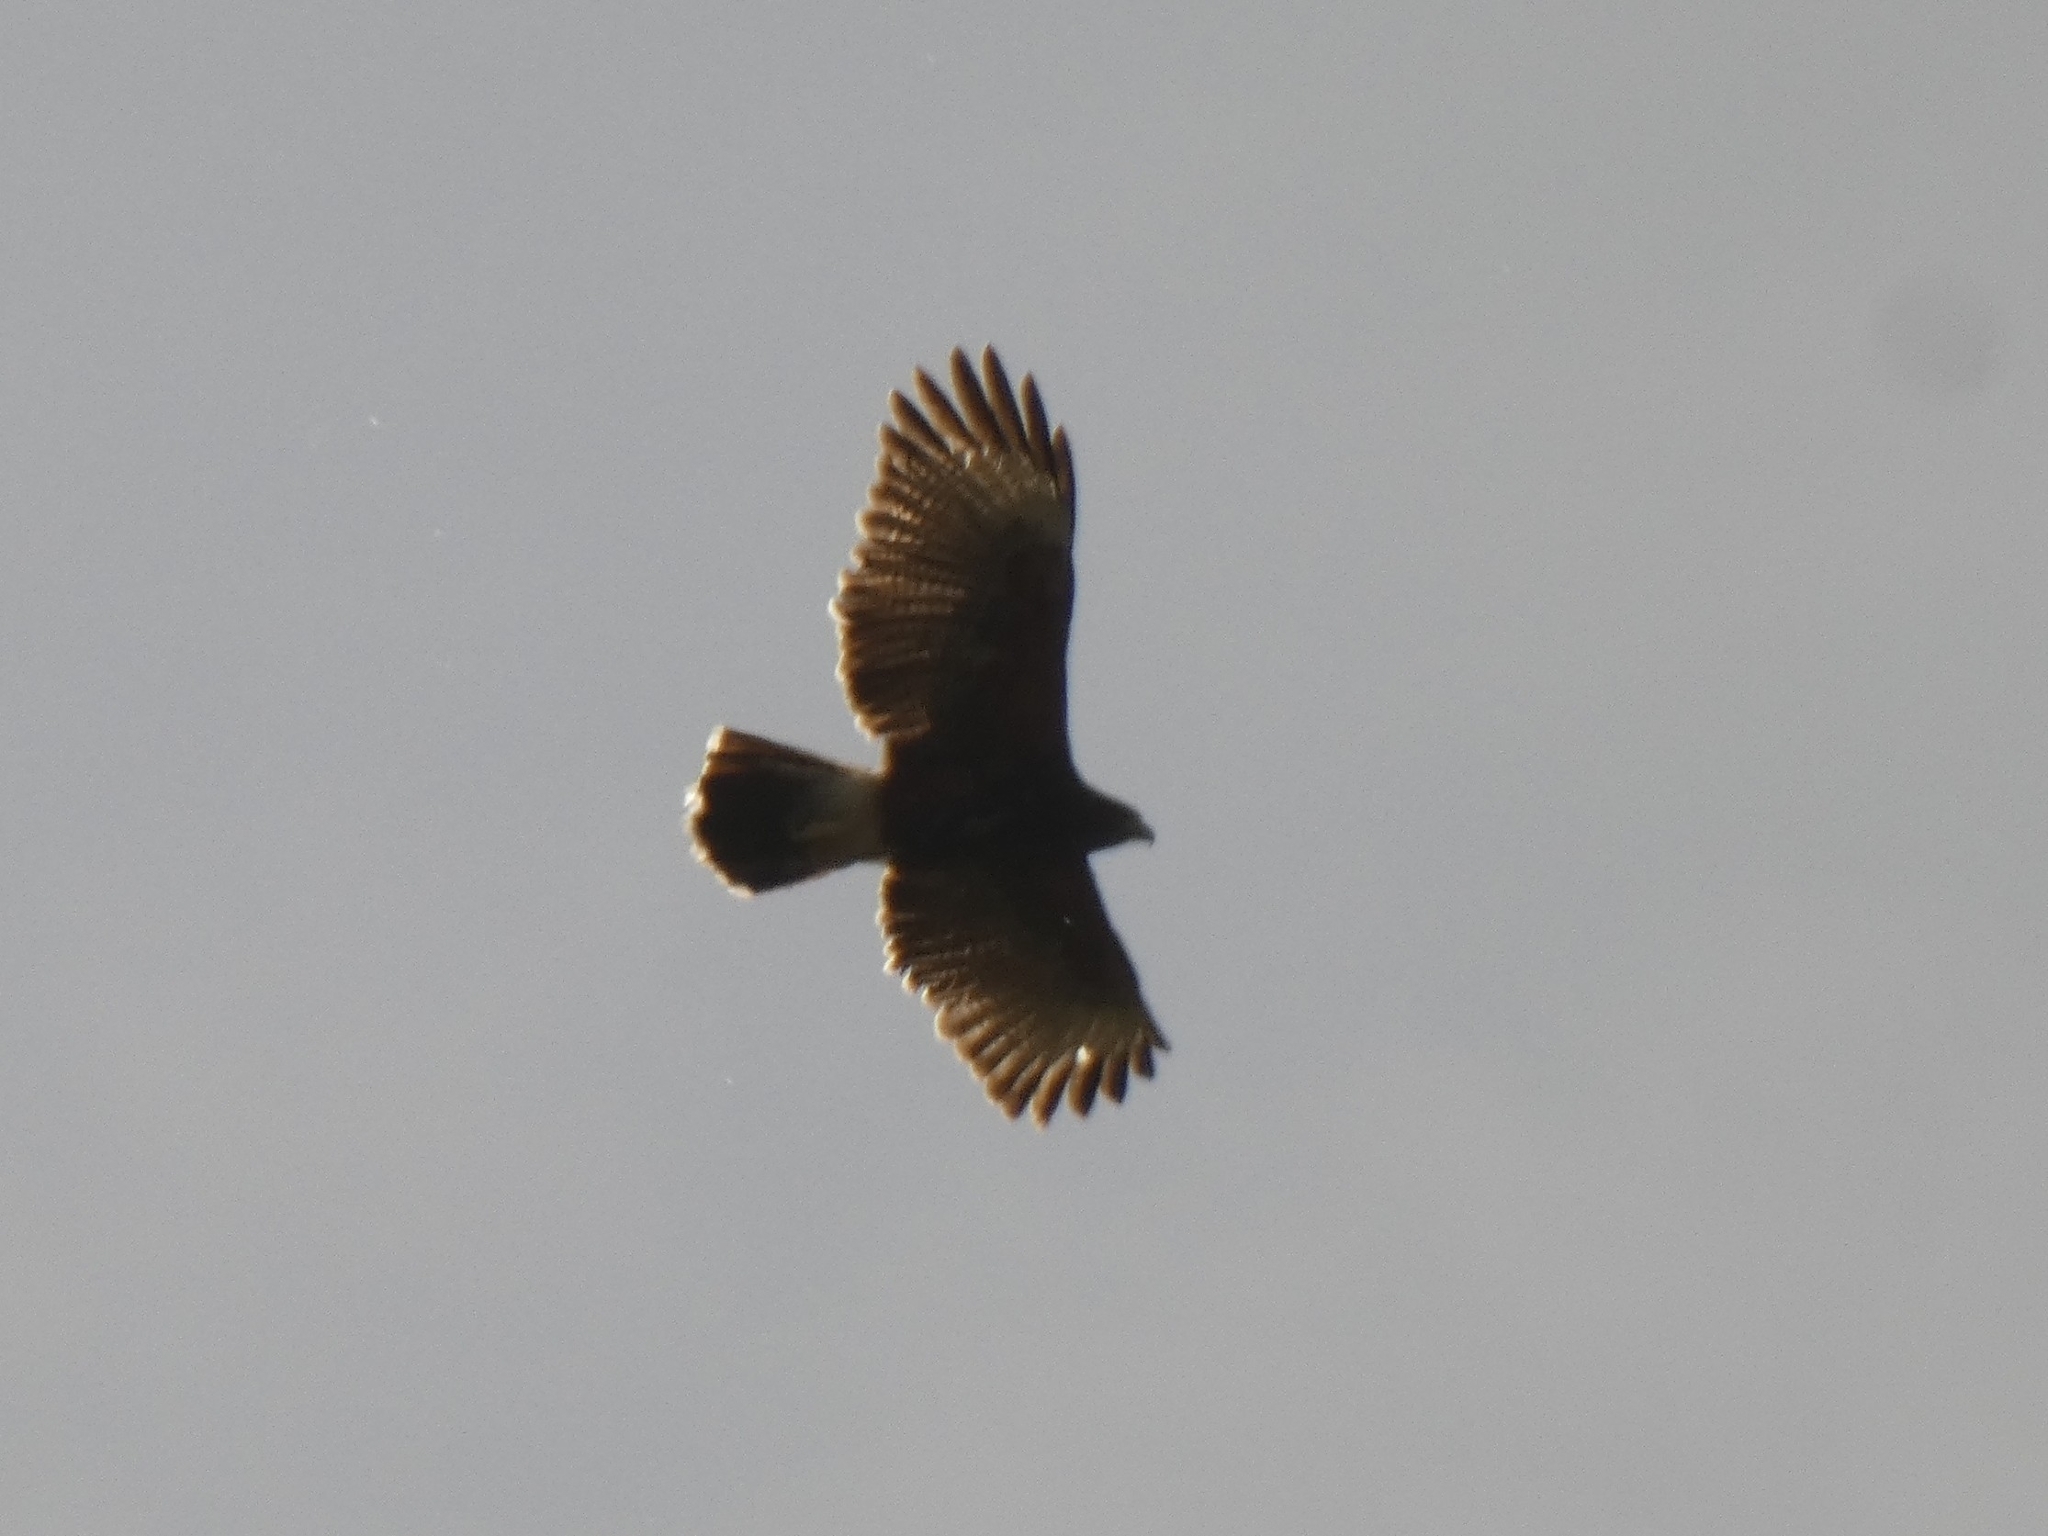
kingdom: Animalia
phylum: Chordata
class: Aves
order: Accipitriformes
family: Accipitridae
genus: Parabuteo
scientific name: Parabuteo unicinctus
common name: Harris's hawk
